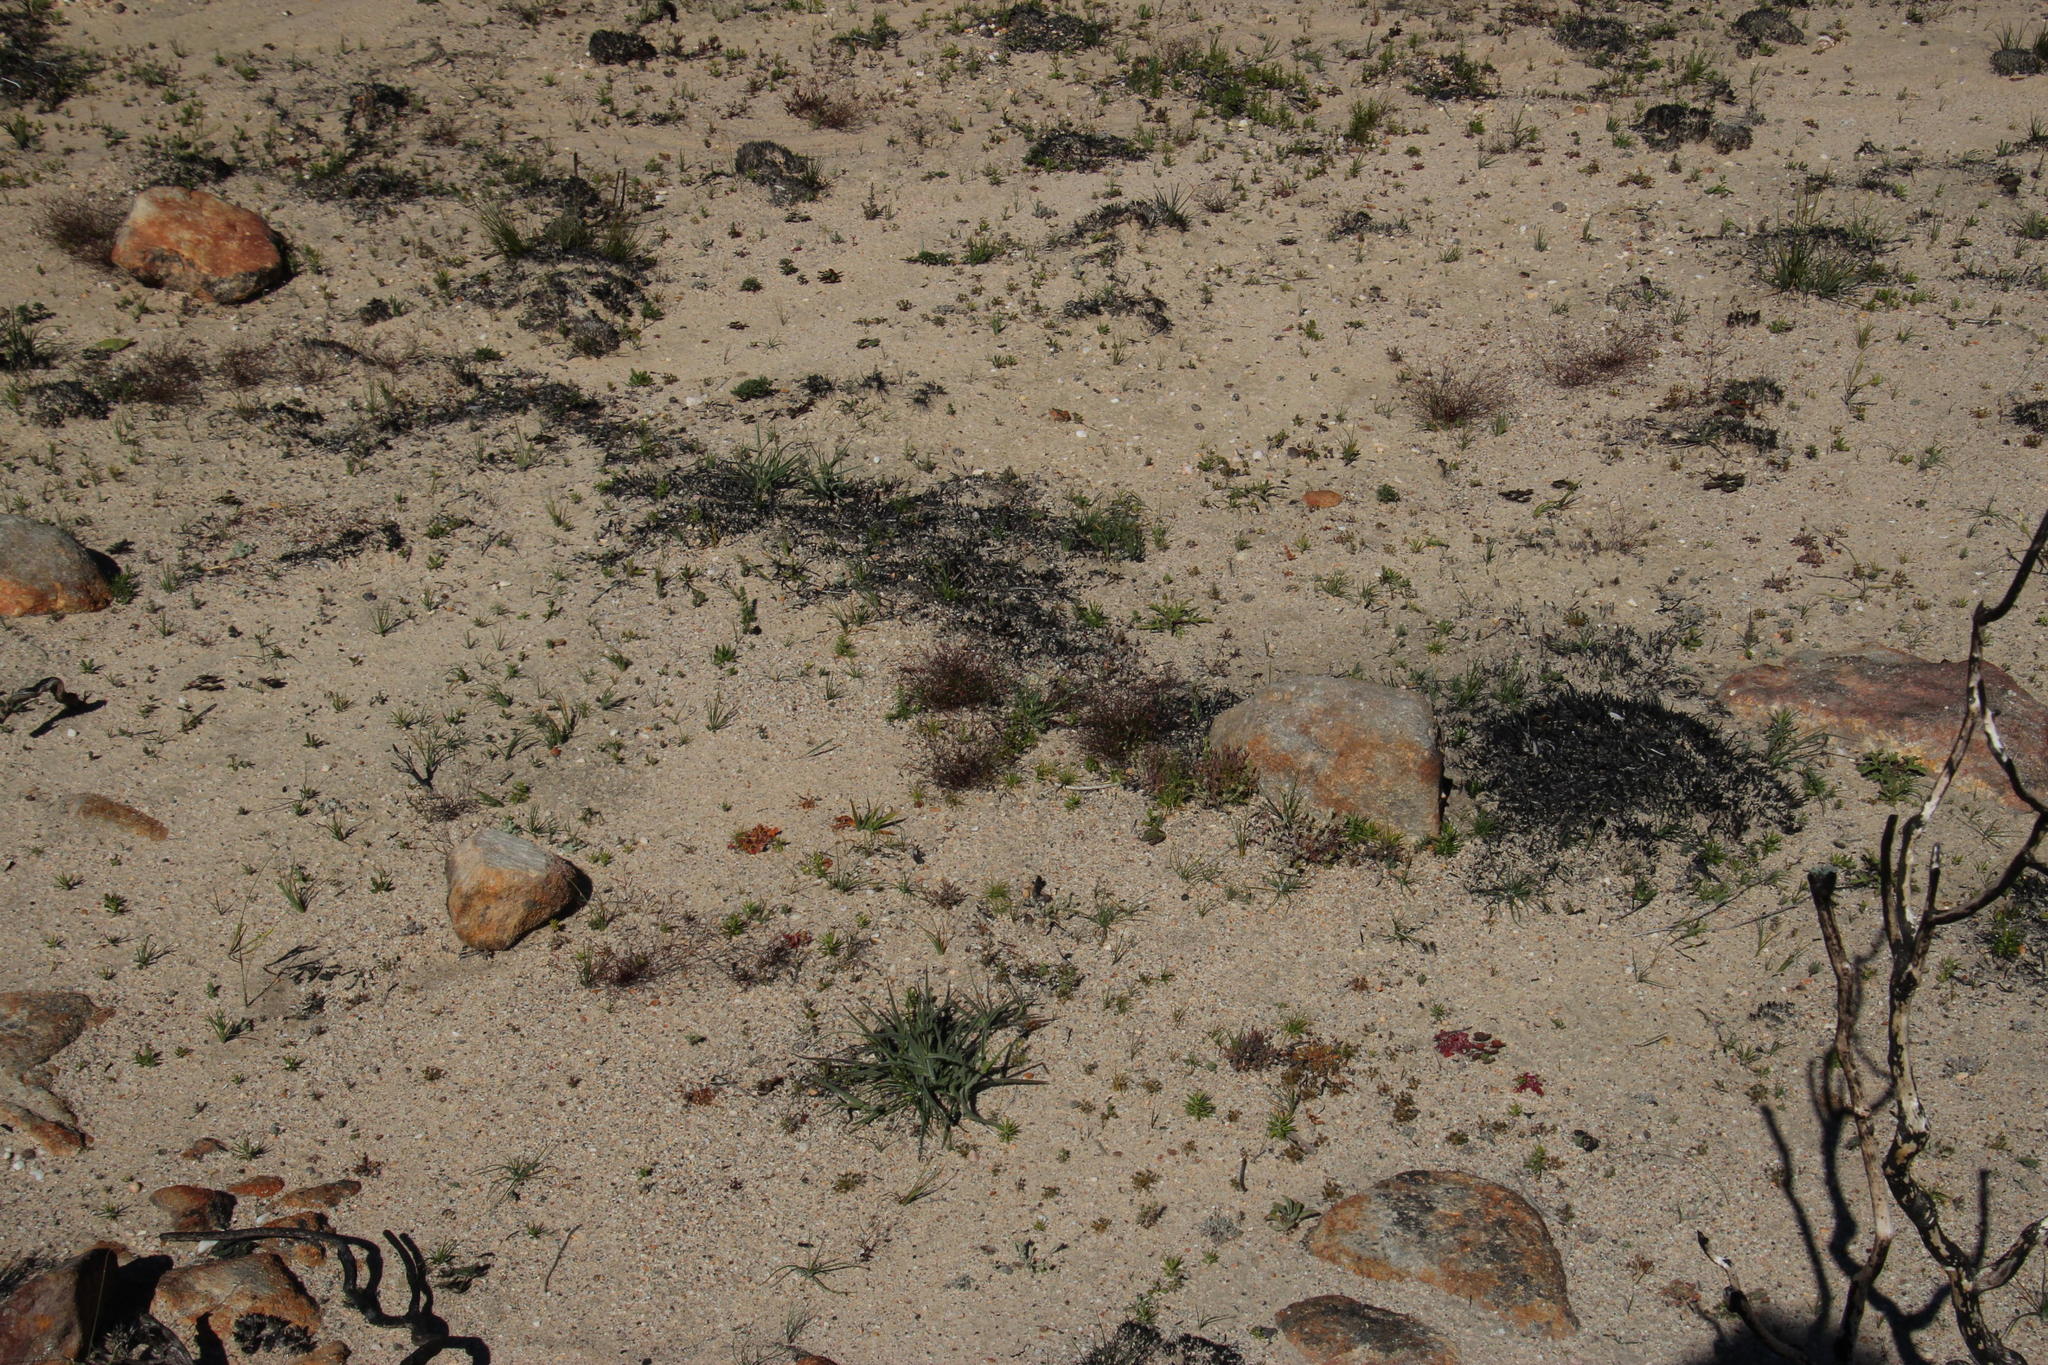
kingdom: Plantae
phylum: Tracheophyta
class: Magnoliopsida
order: Brassicales
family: Brassicaceae
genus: Heliophila
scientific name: Heliophila pinnata
